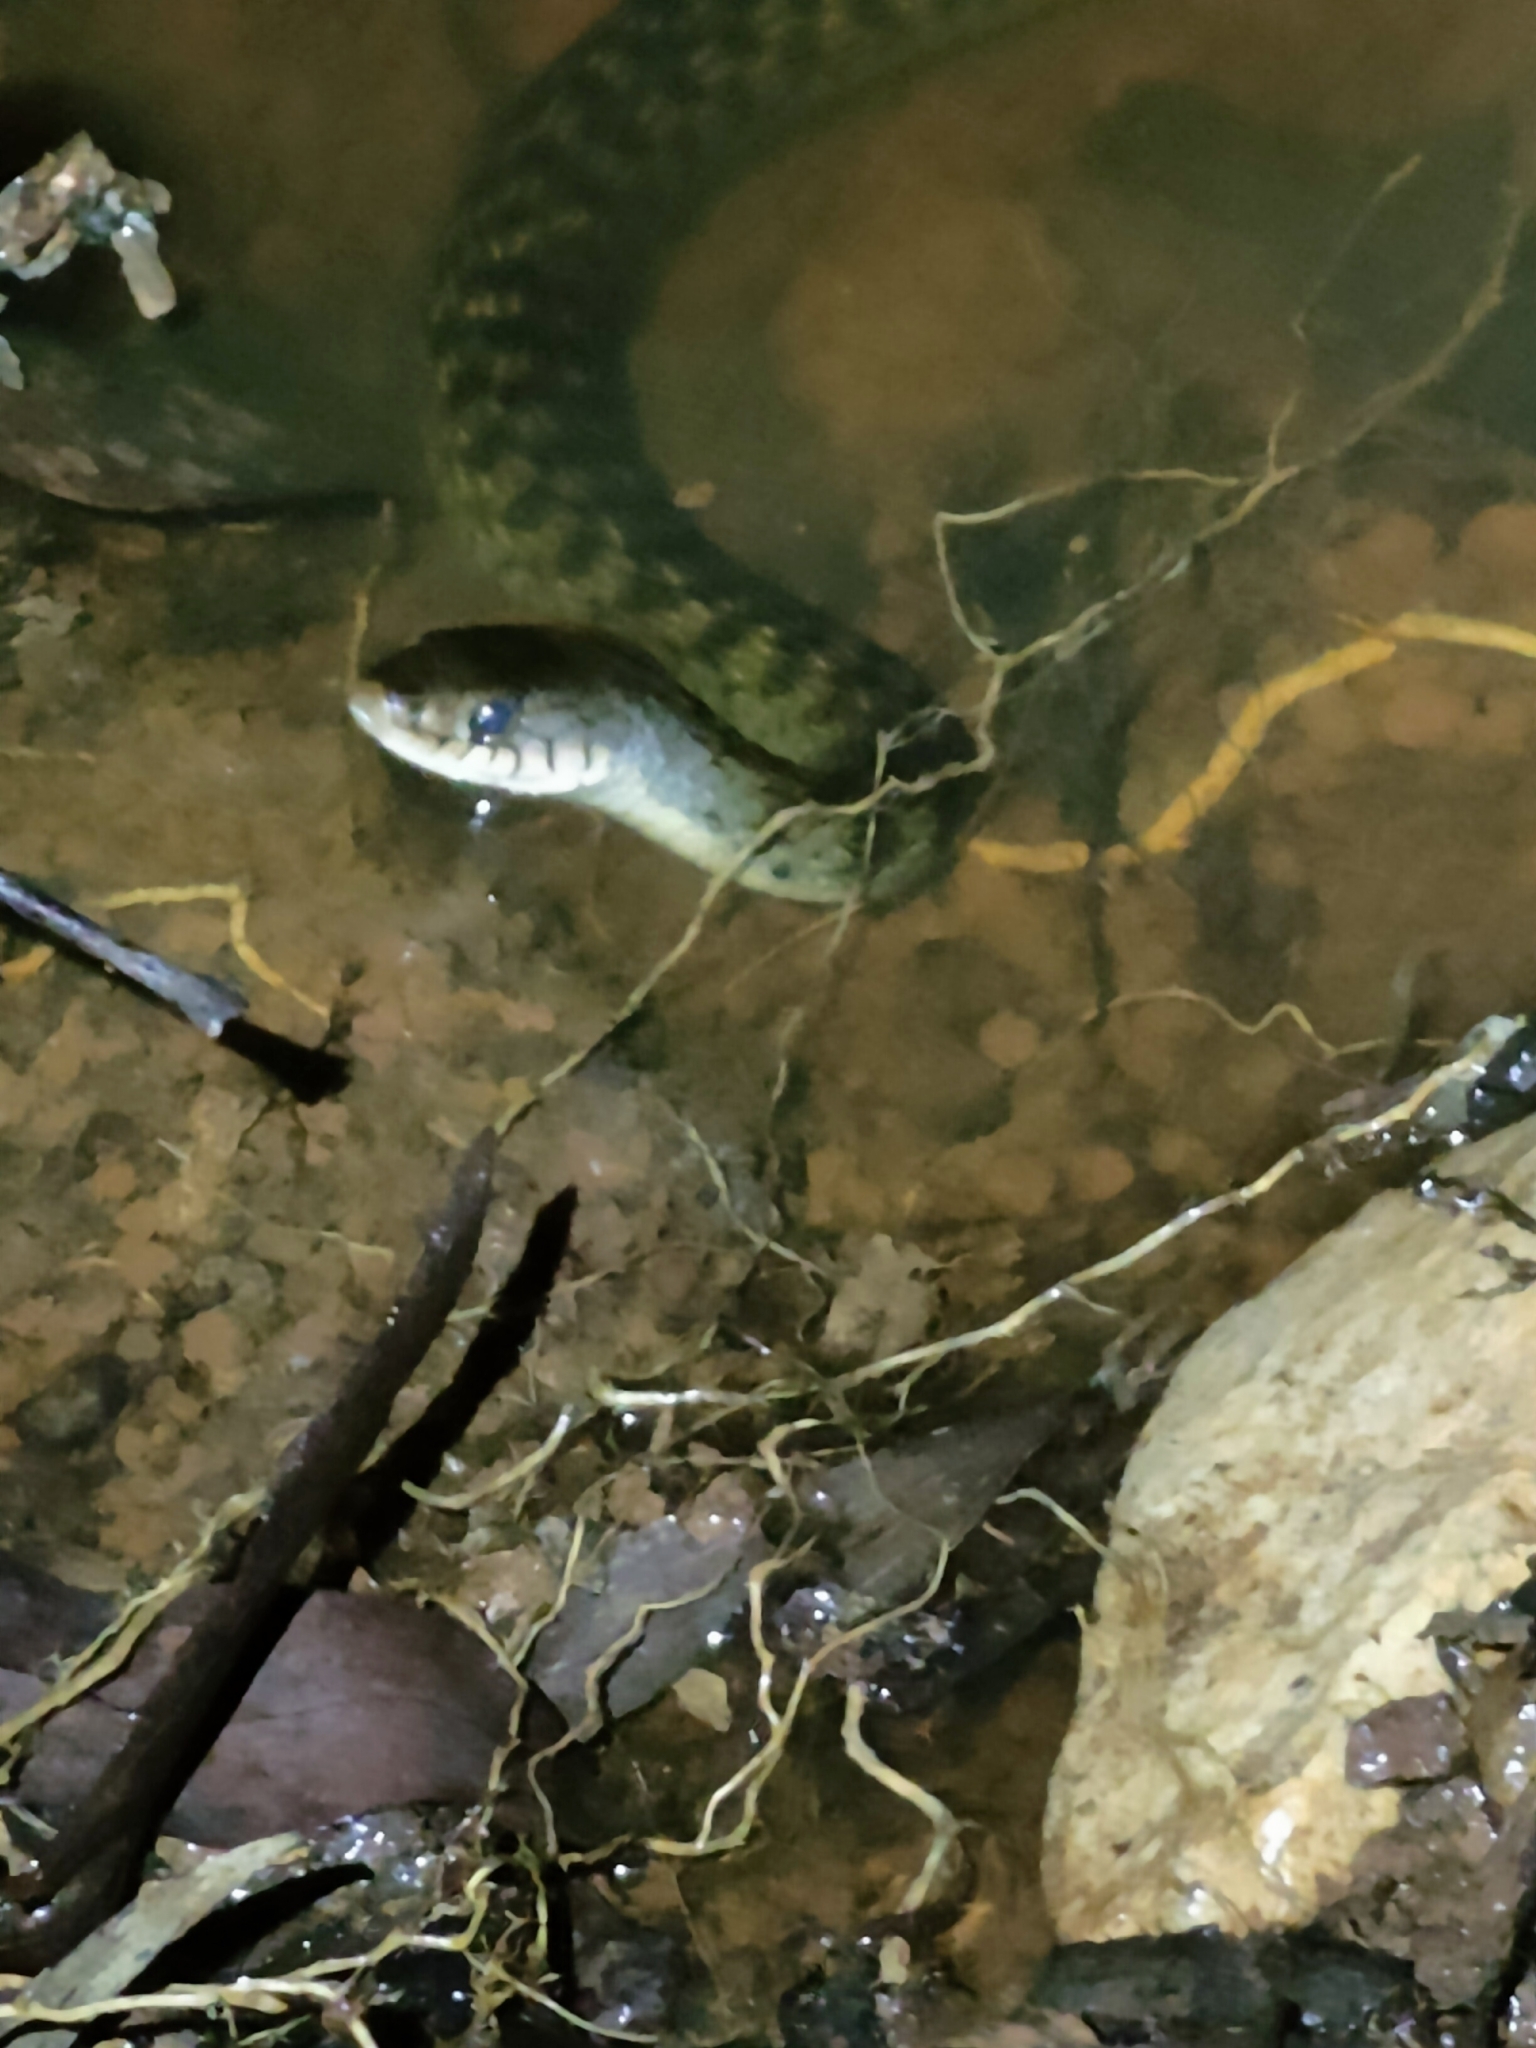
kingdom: Animalia
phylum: Chordata
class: Squamata
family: Colubridae
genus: Tropidonophis
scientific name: Tropidonophis mairii
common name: Common keelback
